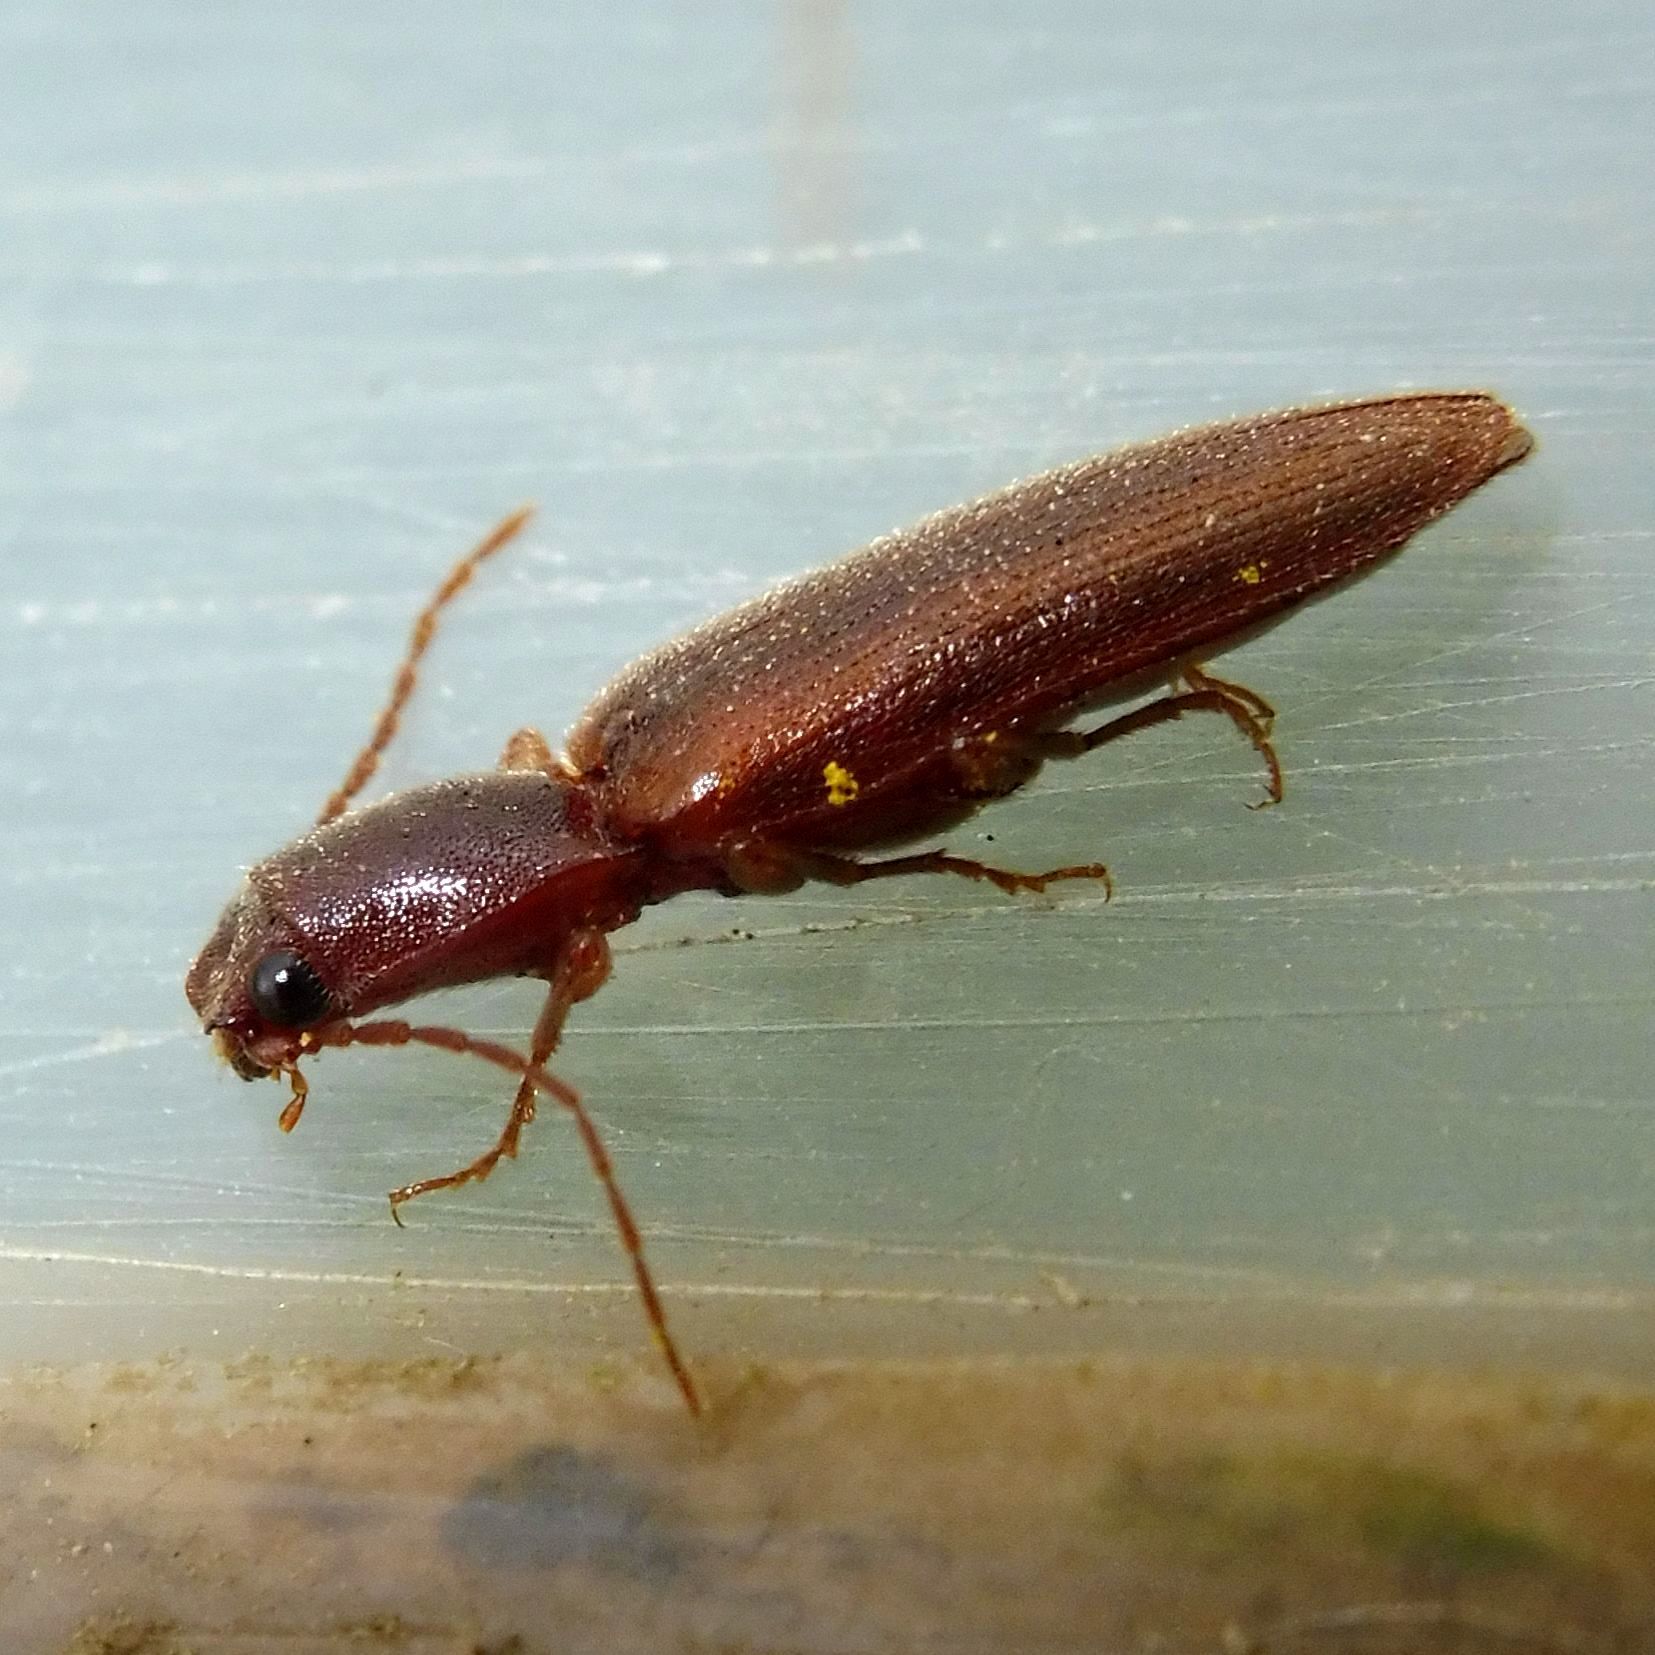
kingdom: Animalia
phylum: Arthropoda
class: Insecta
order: Coleoptera
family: Elateridae
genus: Athous
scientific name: Athous campyloides
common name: Curved click beetle
